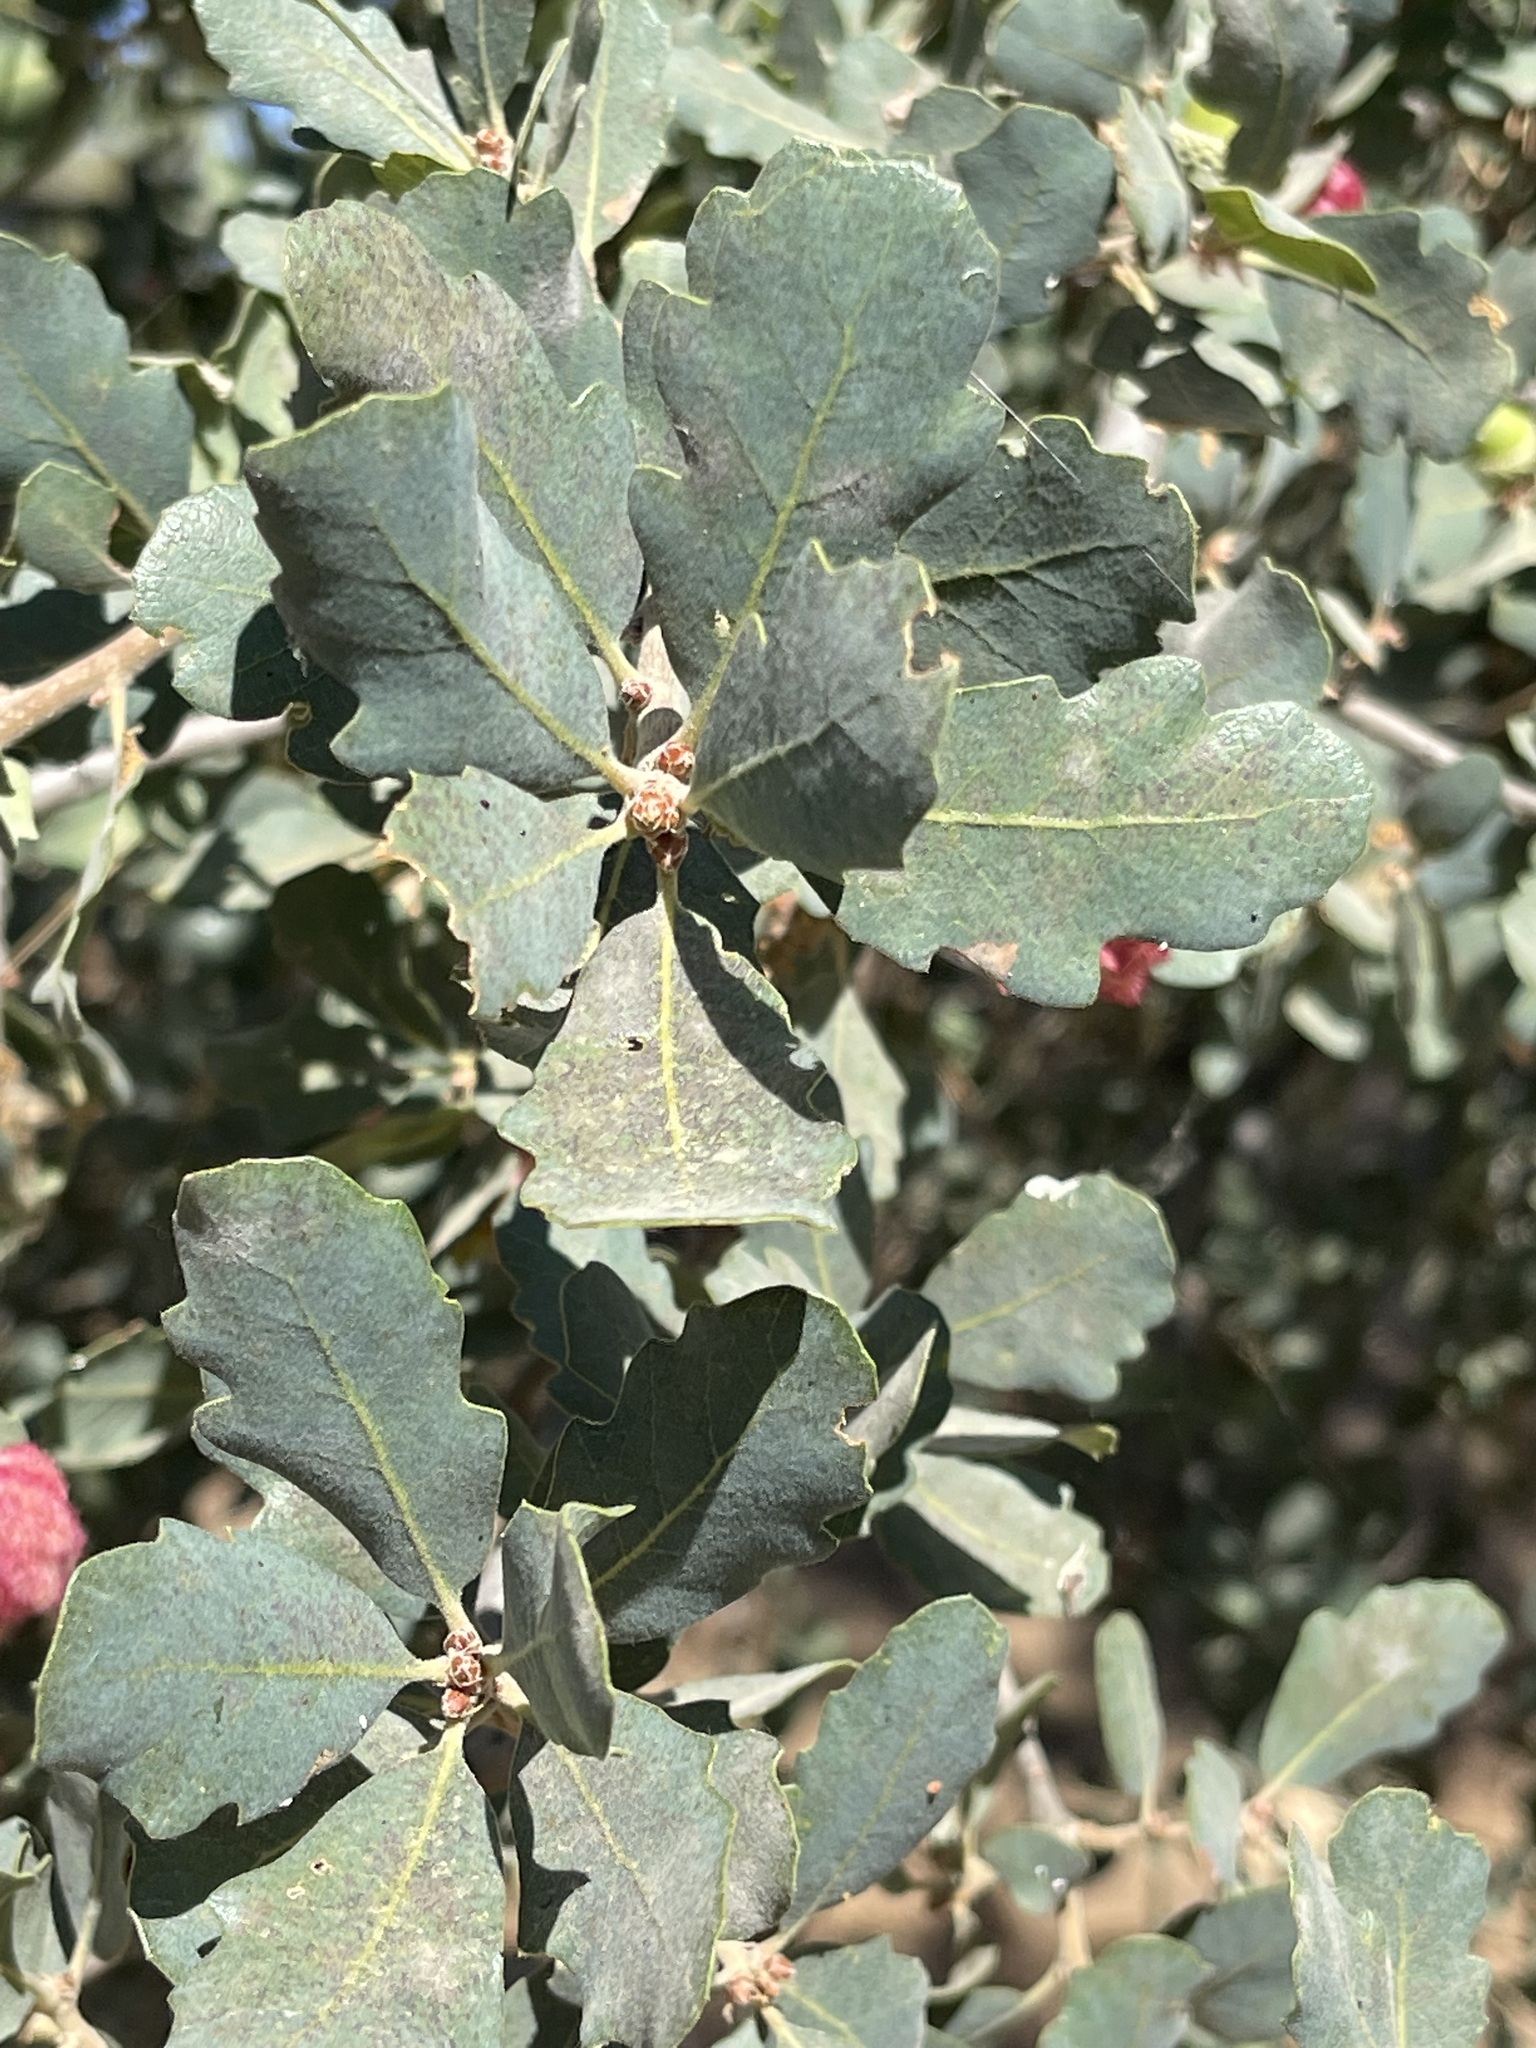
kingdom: Plantae
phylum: Tracheophyta
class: Magnoliopsida
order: Fagales
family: Fagaceae
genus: Quercus
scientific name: Quercus douglasii
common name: Blue oak
